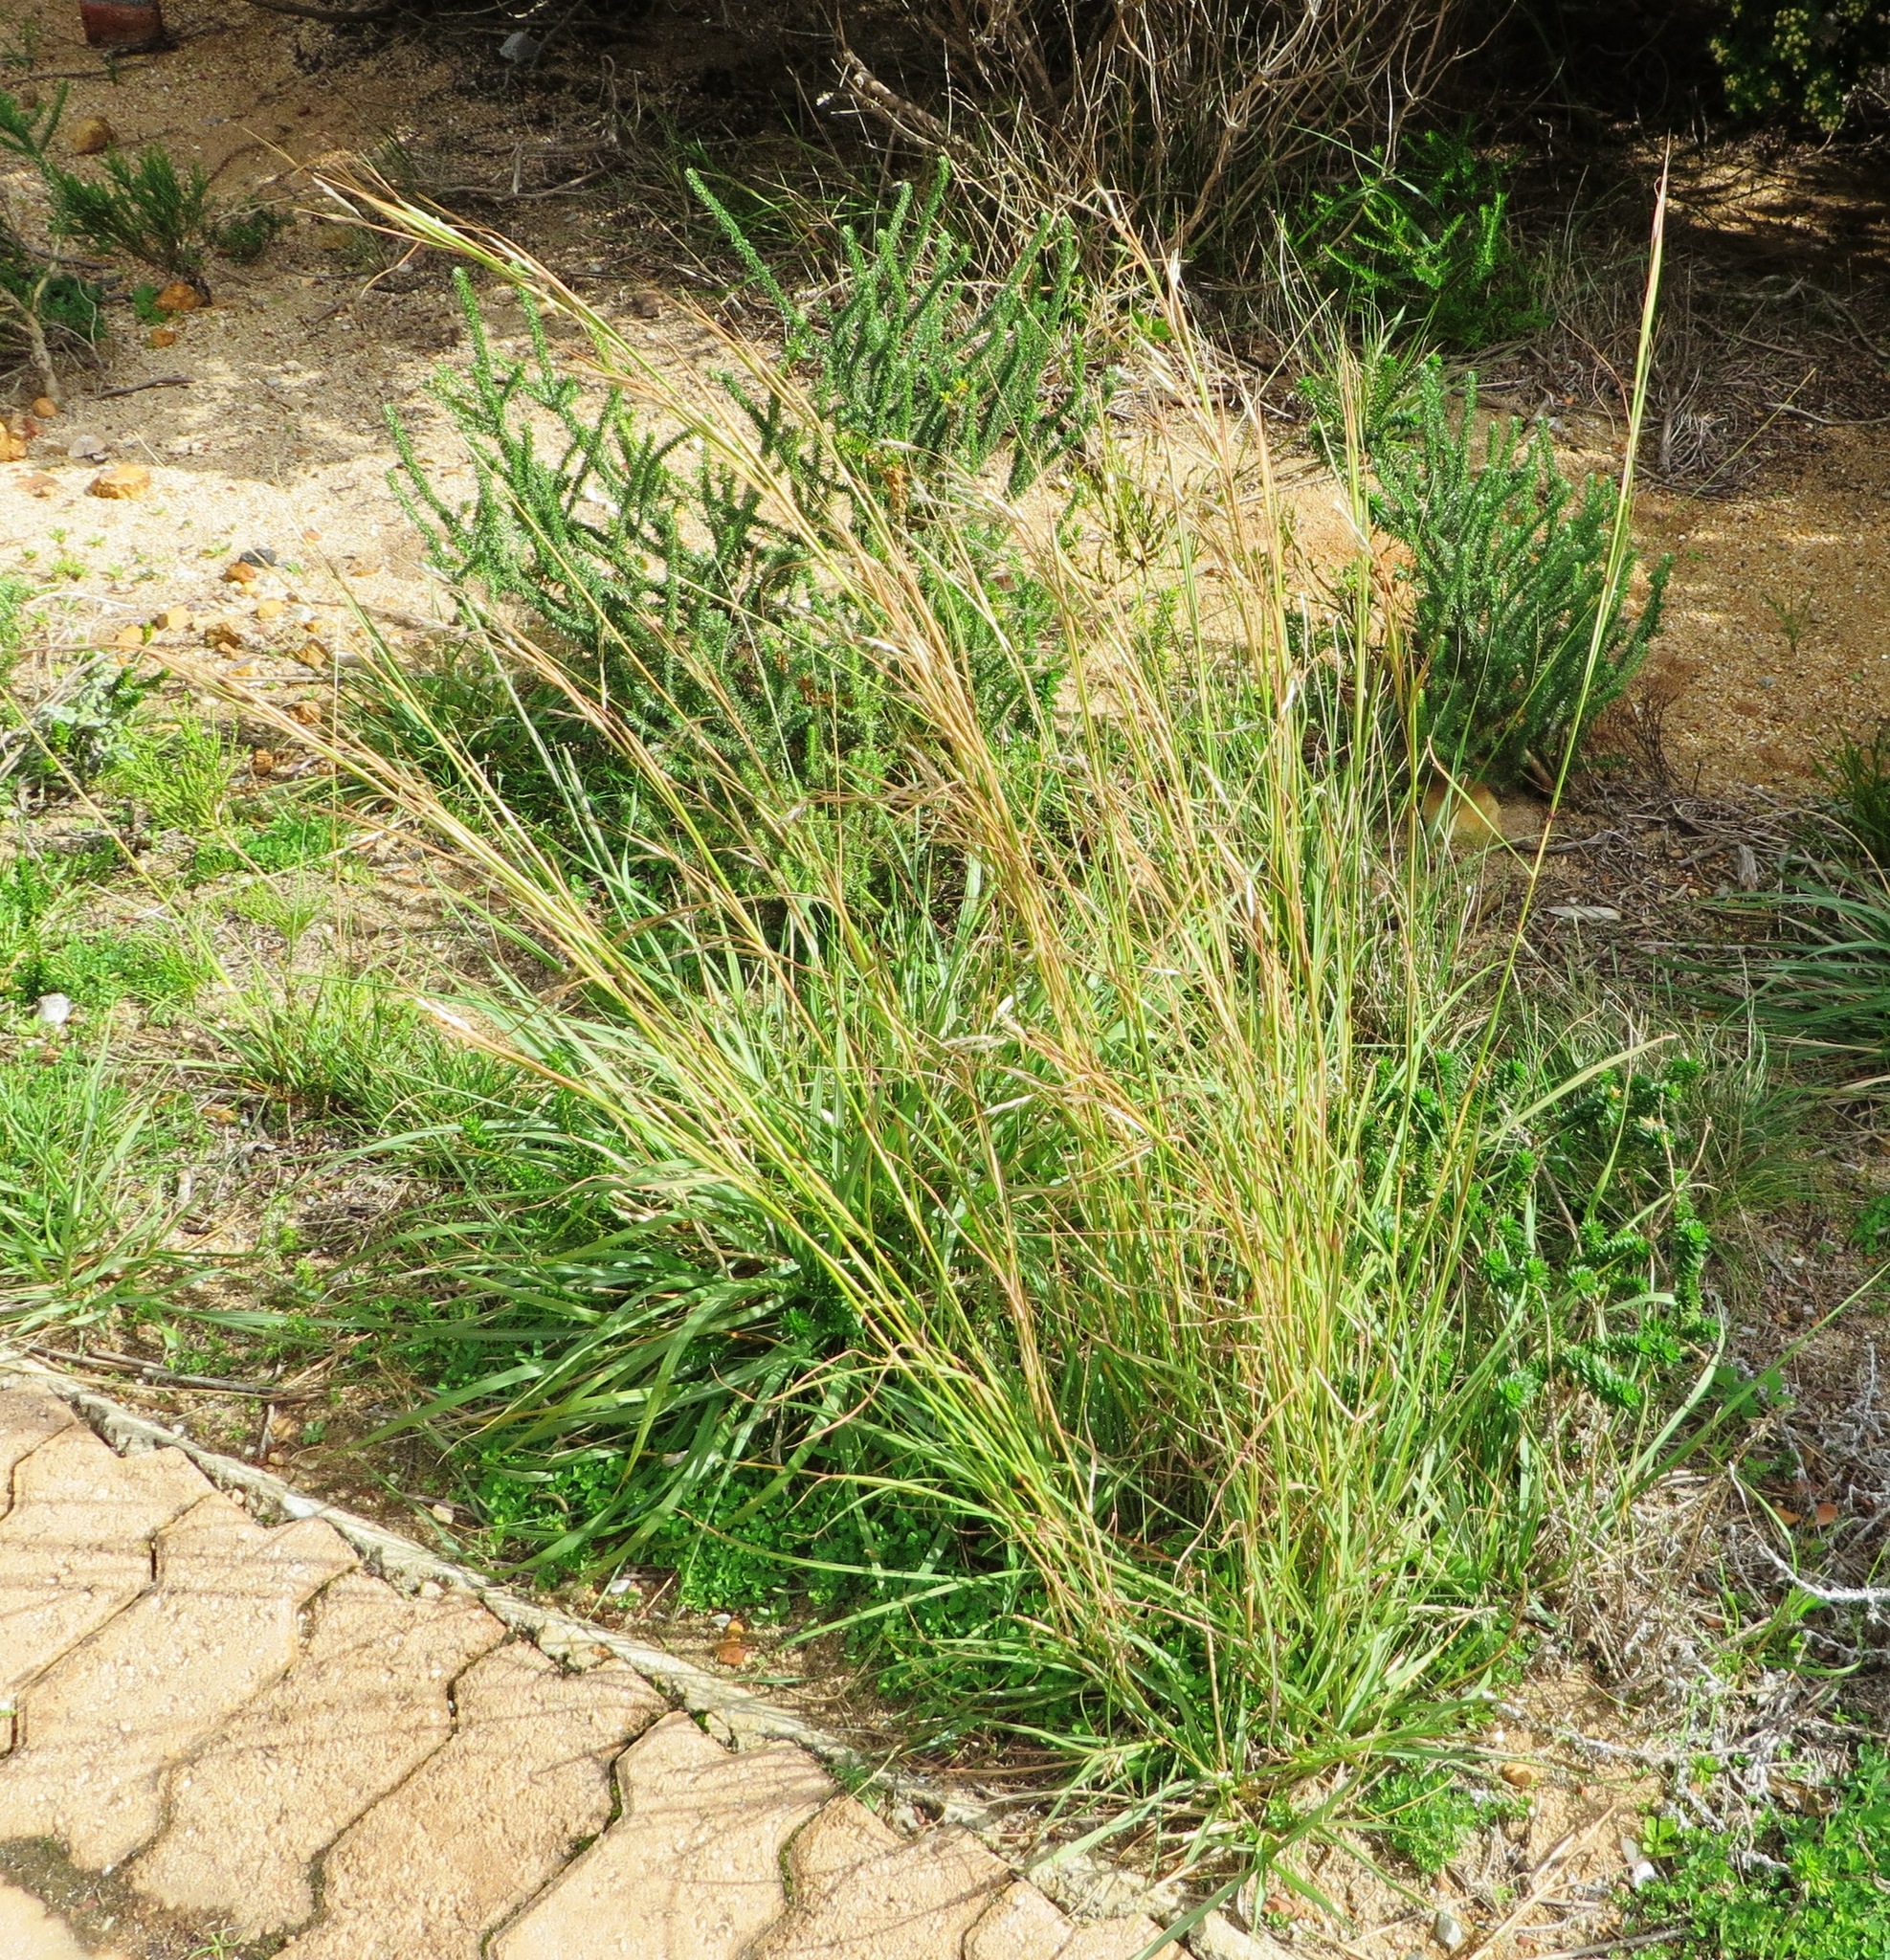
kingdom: Plantae
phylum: Tracheophyta
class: Liliopsida
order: Poales
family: Poaceae
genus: Hyparrhenia
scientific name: Hyparrhenia hirta
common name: Thatching grass
